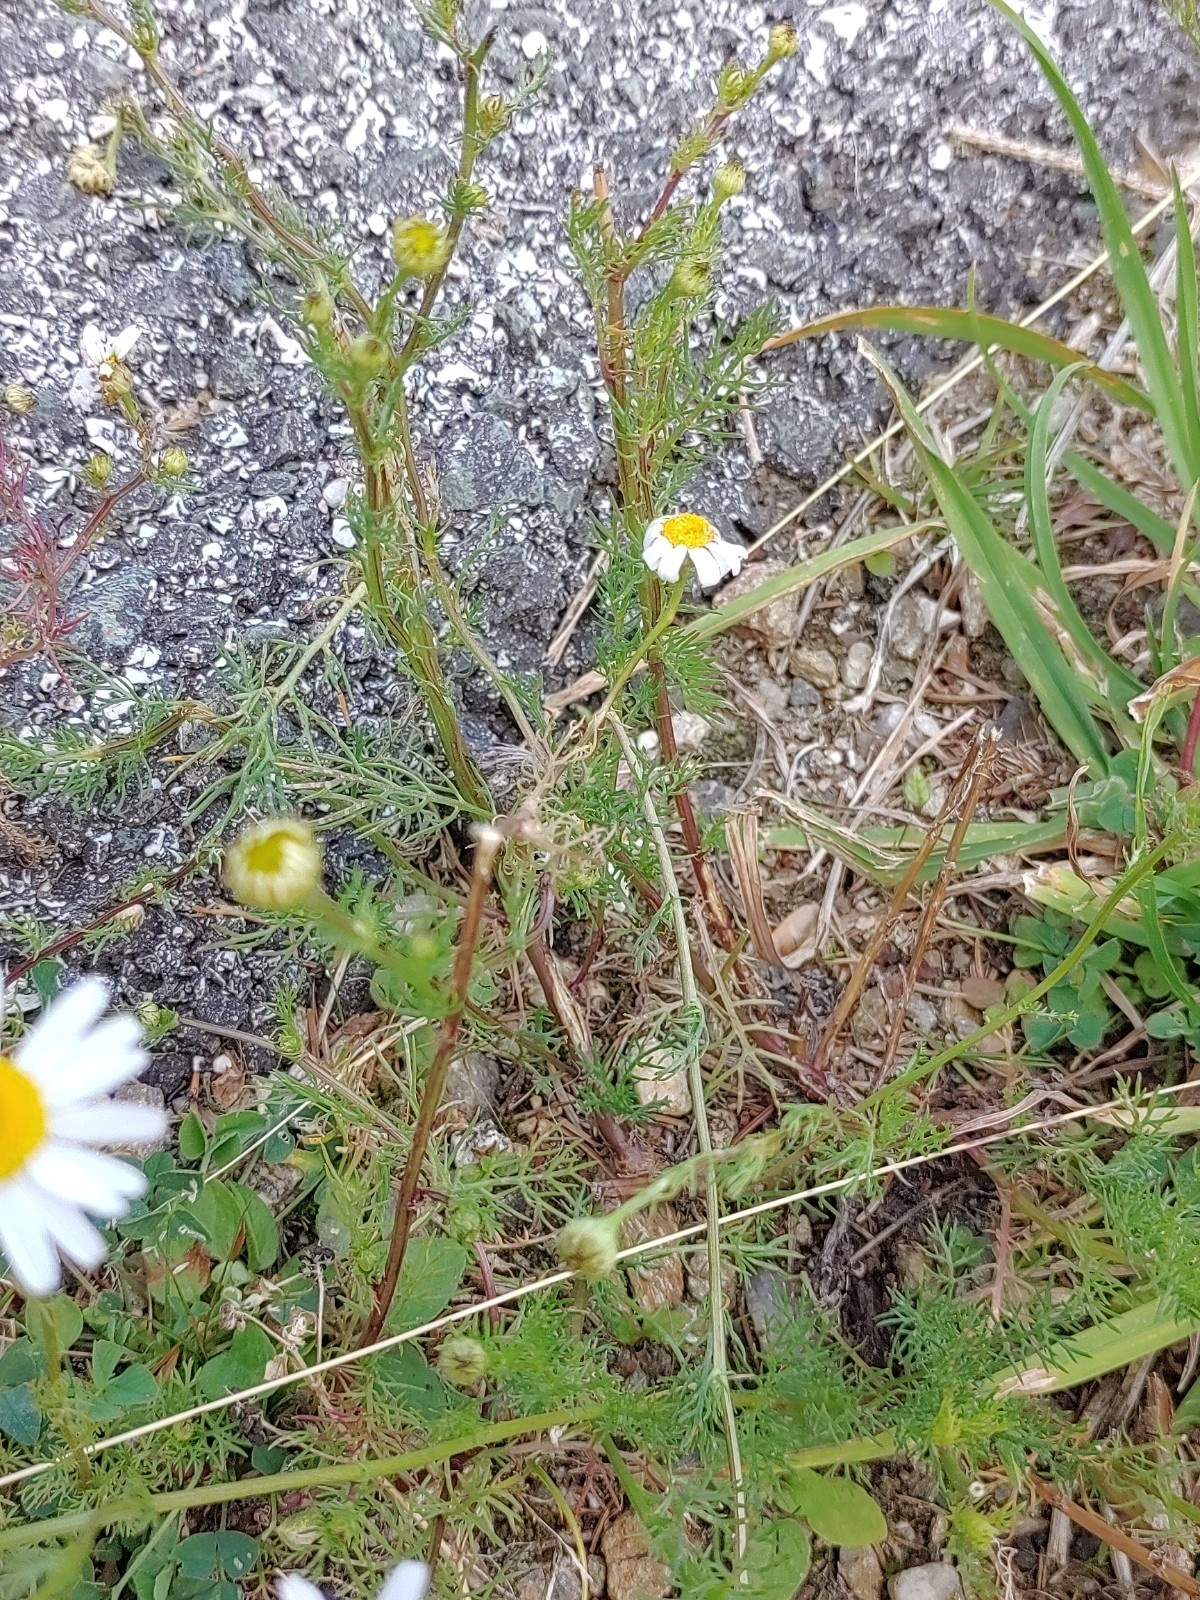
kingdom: Plantae
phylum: Tracheophyta
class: Magnoliopsida
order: Asterales
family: Asteraceae
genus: Tripleurospermum
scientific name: Tripleurospermum inodorum
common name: Scentless mayweed
